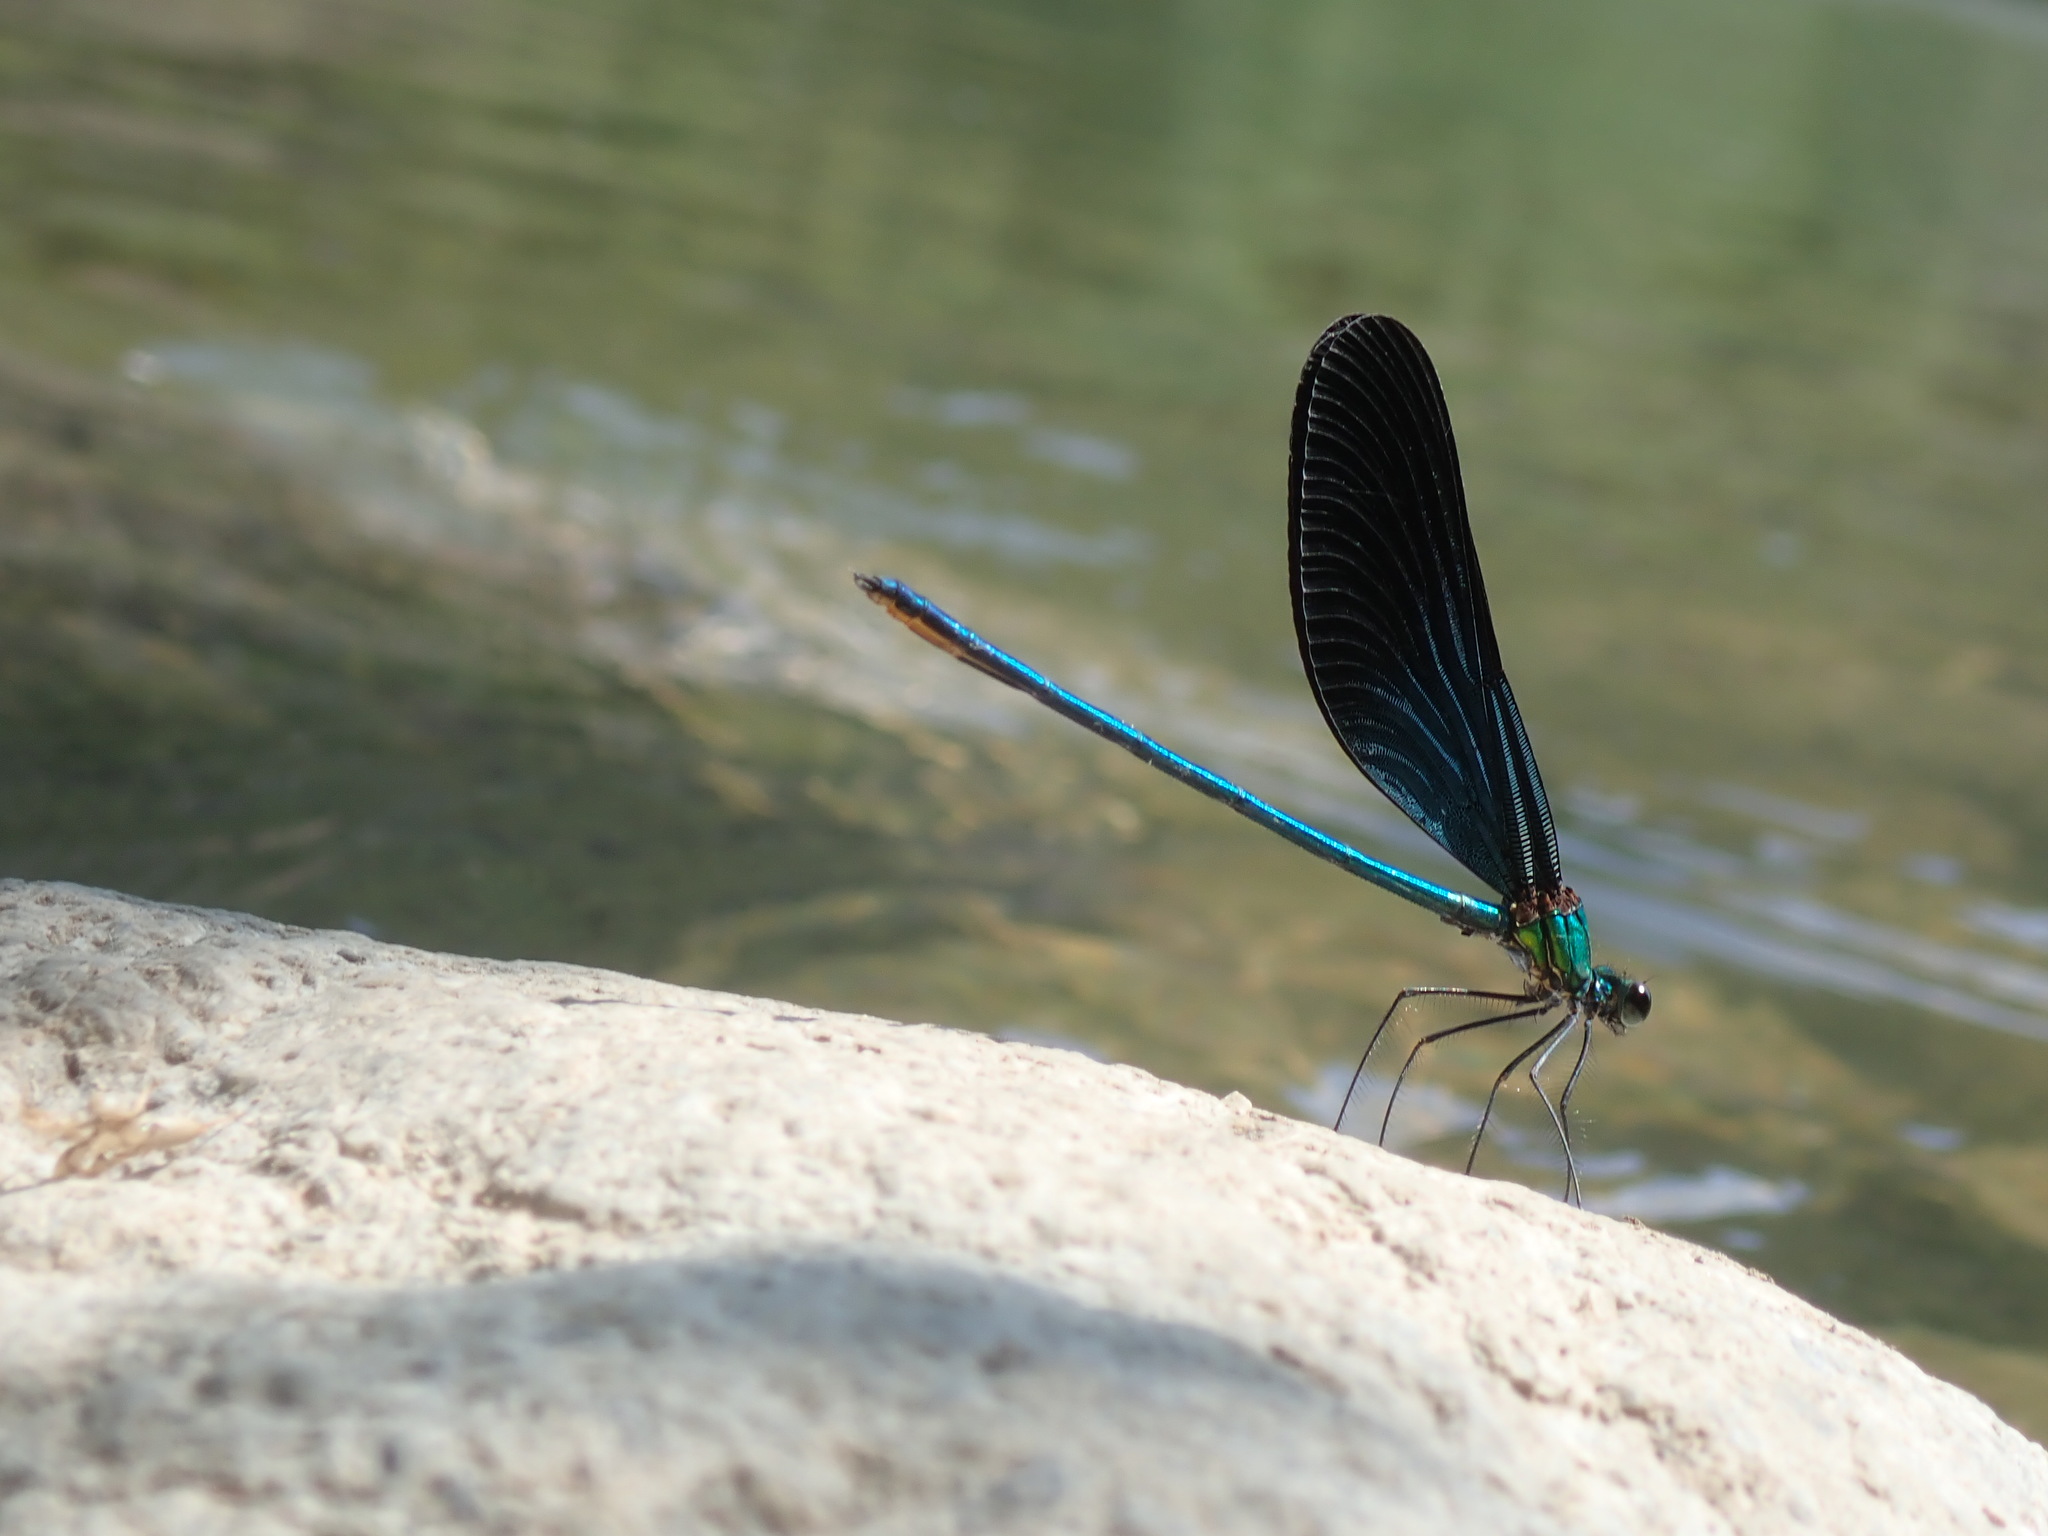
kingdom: Animalia
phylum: Arthropoda
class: Insecta
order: Odonata
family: Calopterygidae
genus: Matrona
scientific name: Matrona basilaris
